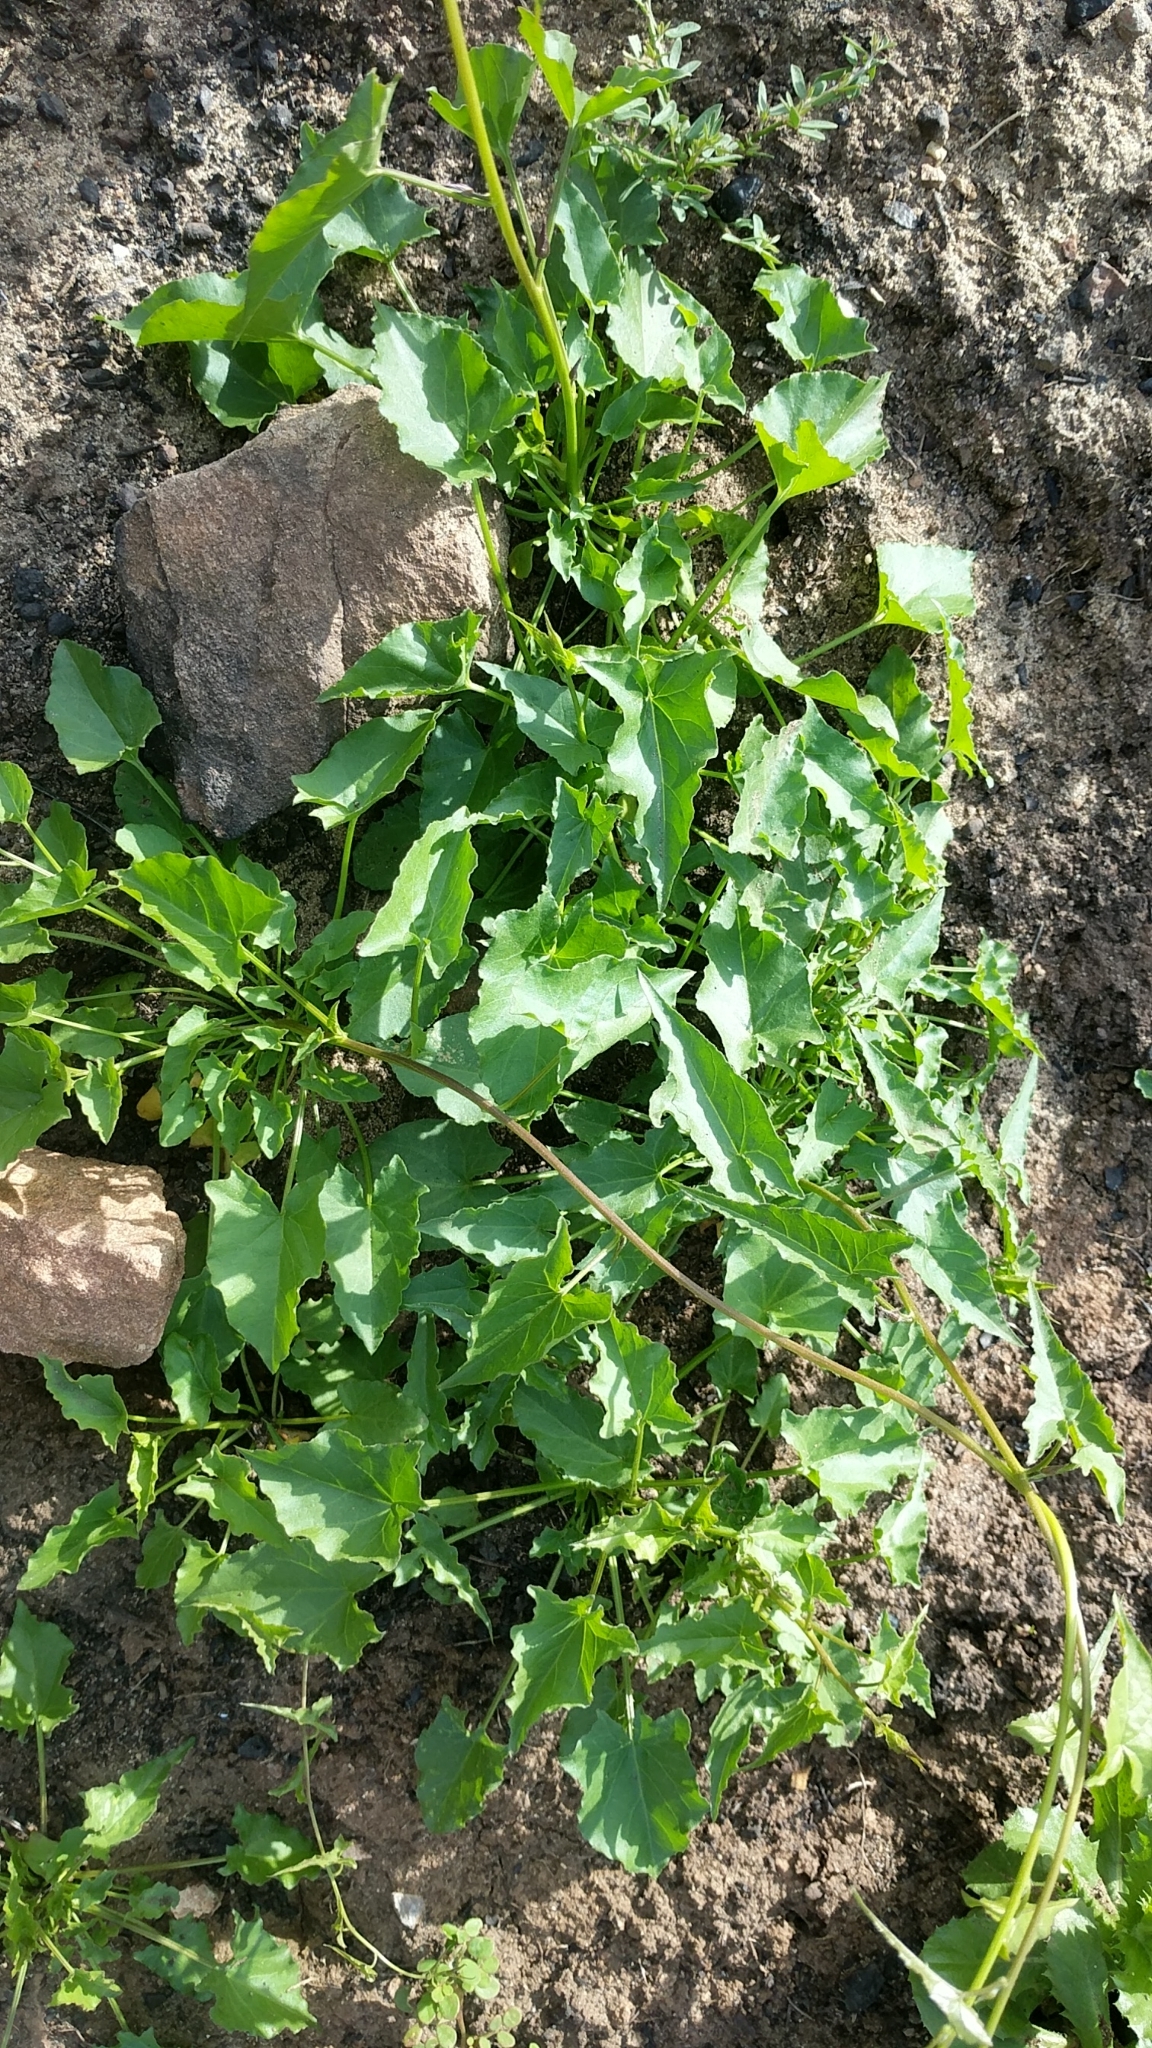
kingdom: Plantae
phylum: Tracheophyta
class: Magnoliopsida
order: Solanales
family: Convolvulaceae
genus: Calystegia
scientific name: Calystegia macrostegia
